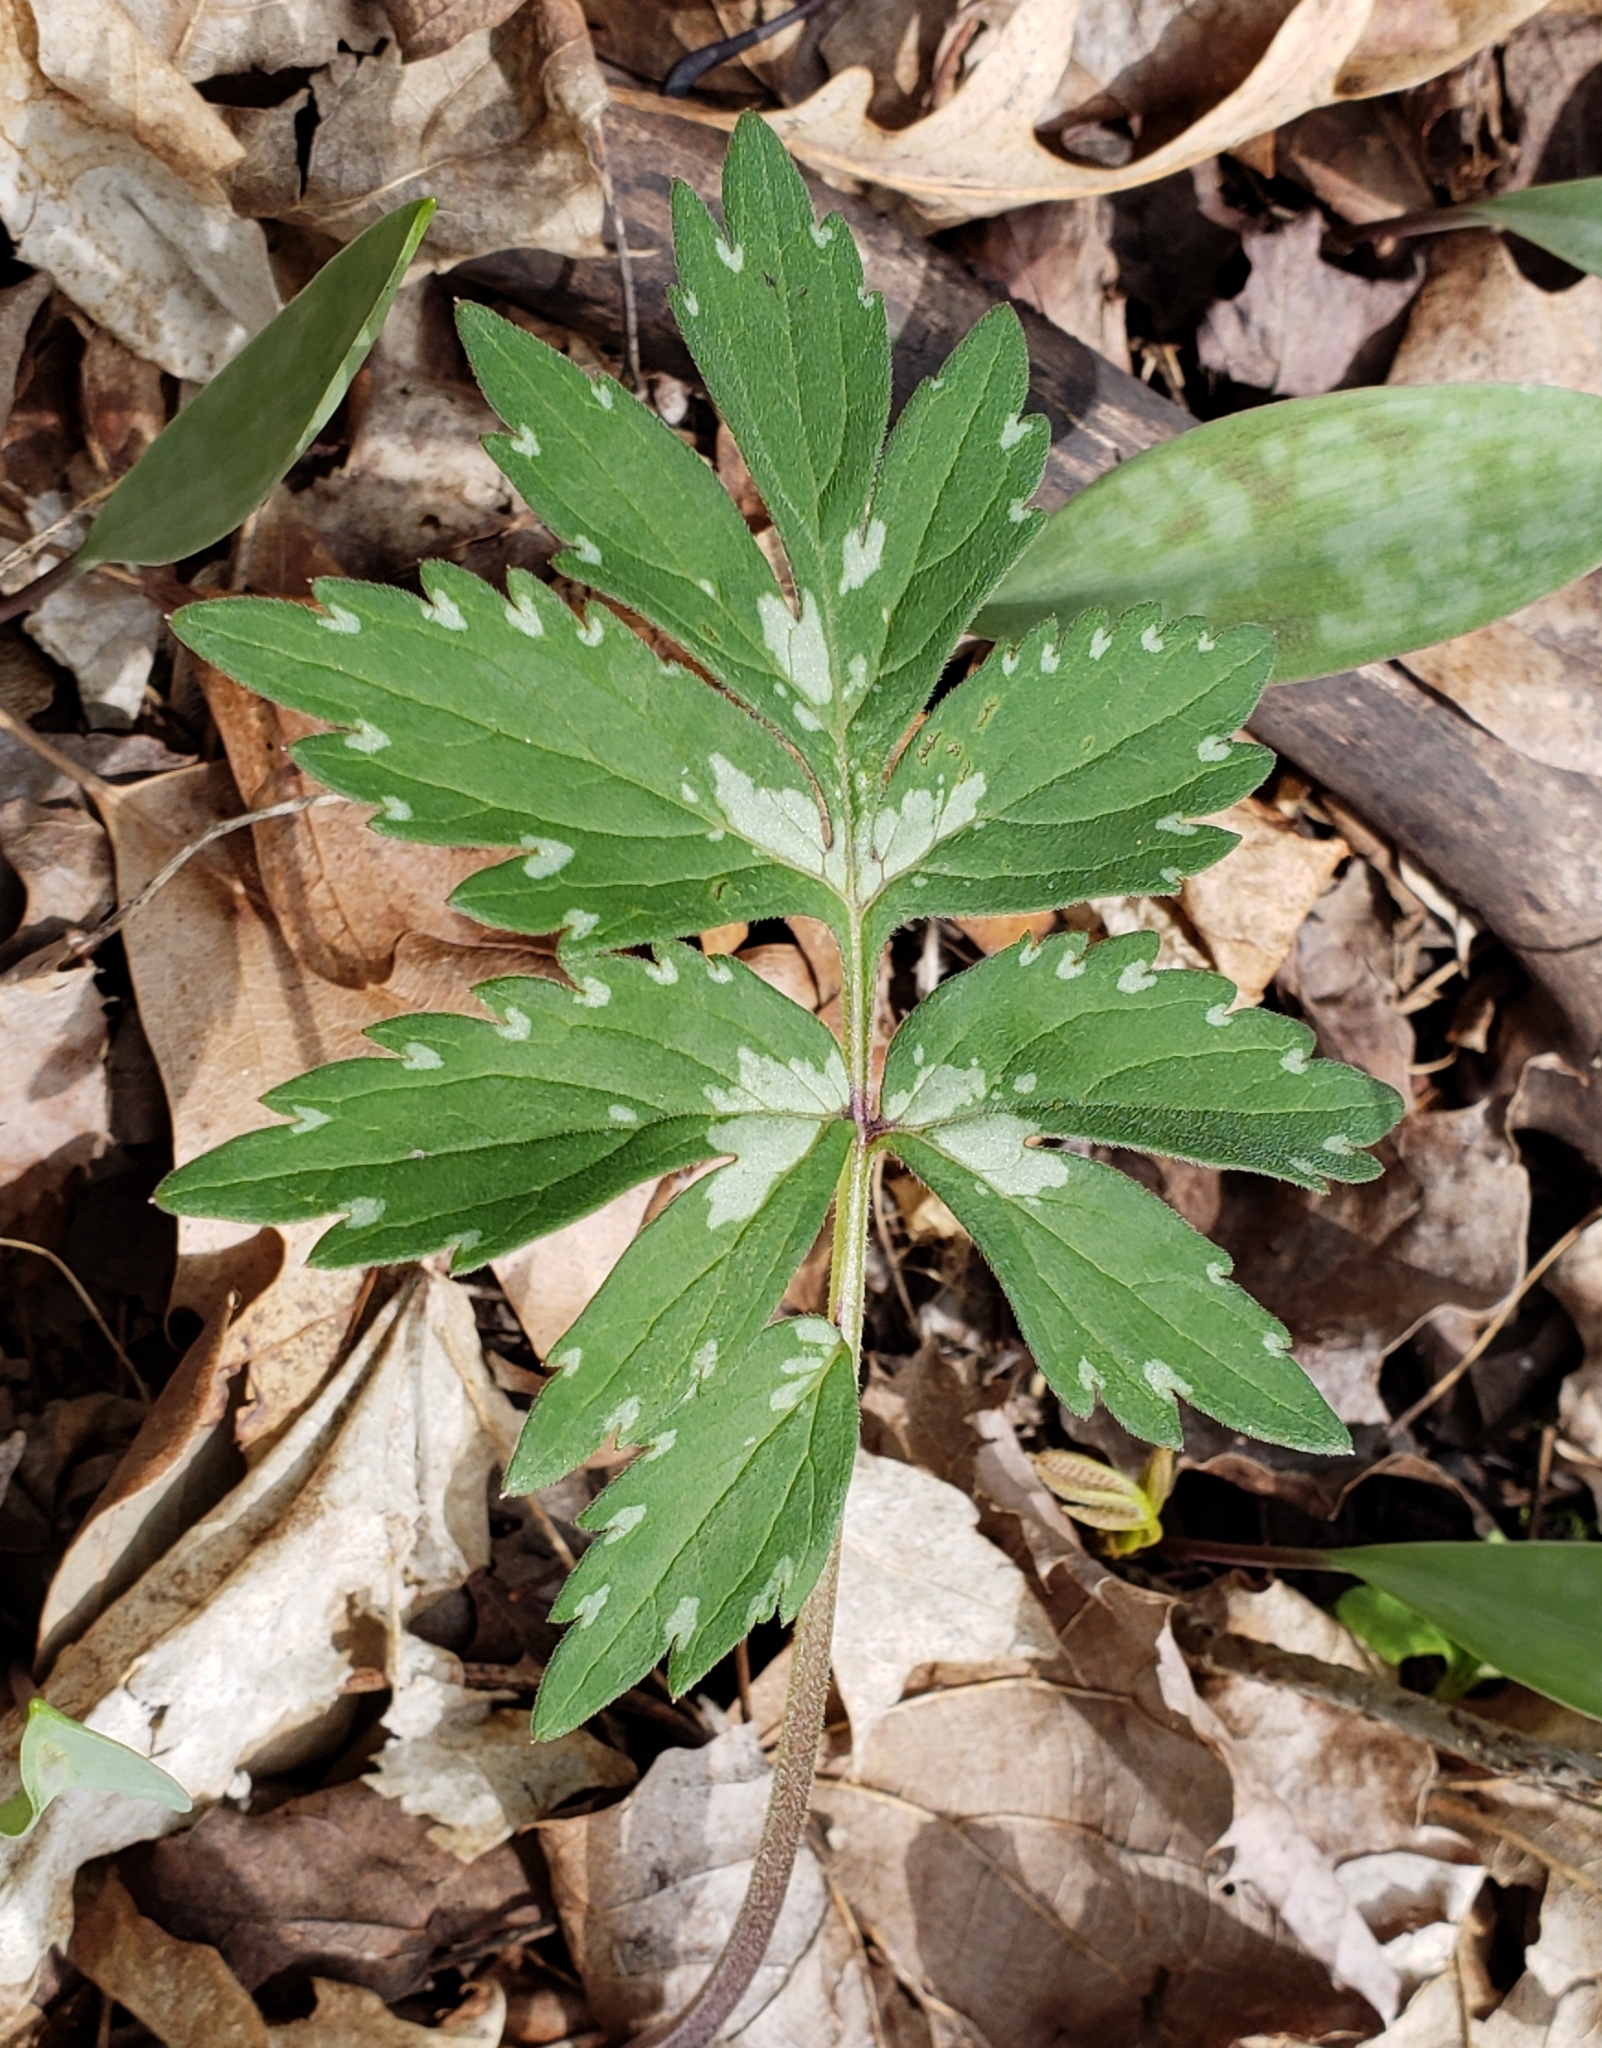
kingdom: Plantae
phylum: Tracheophyta
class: Magnoliopsida
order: Boraginales
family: Hydrophyllaceae
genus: Hydrophyllum
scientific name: Hydrophyllum virginianum
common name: Virginia waterleaf
